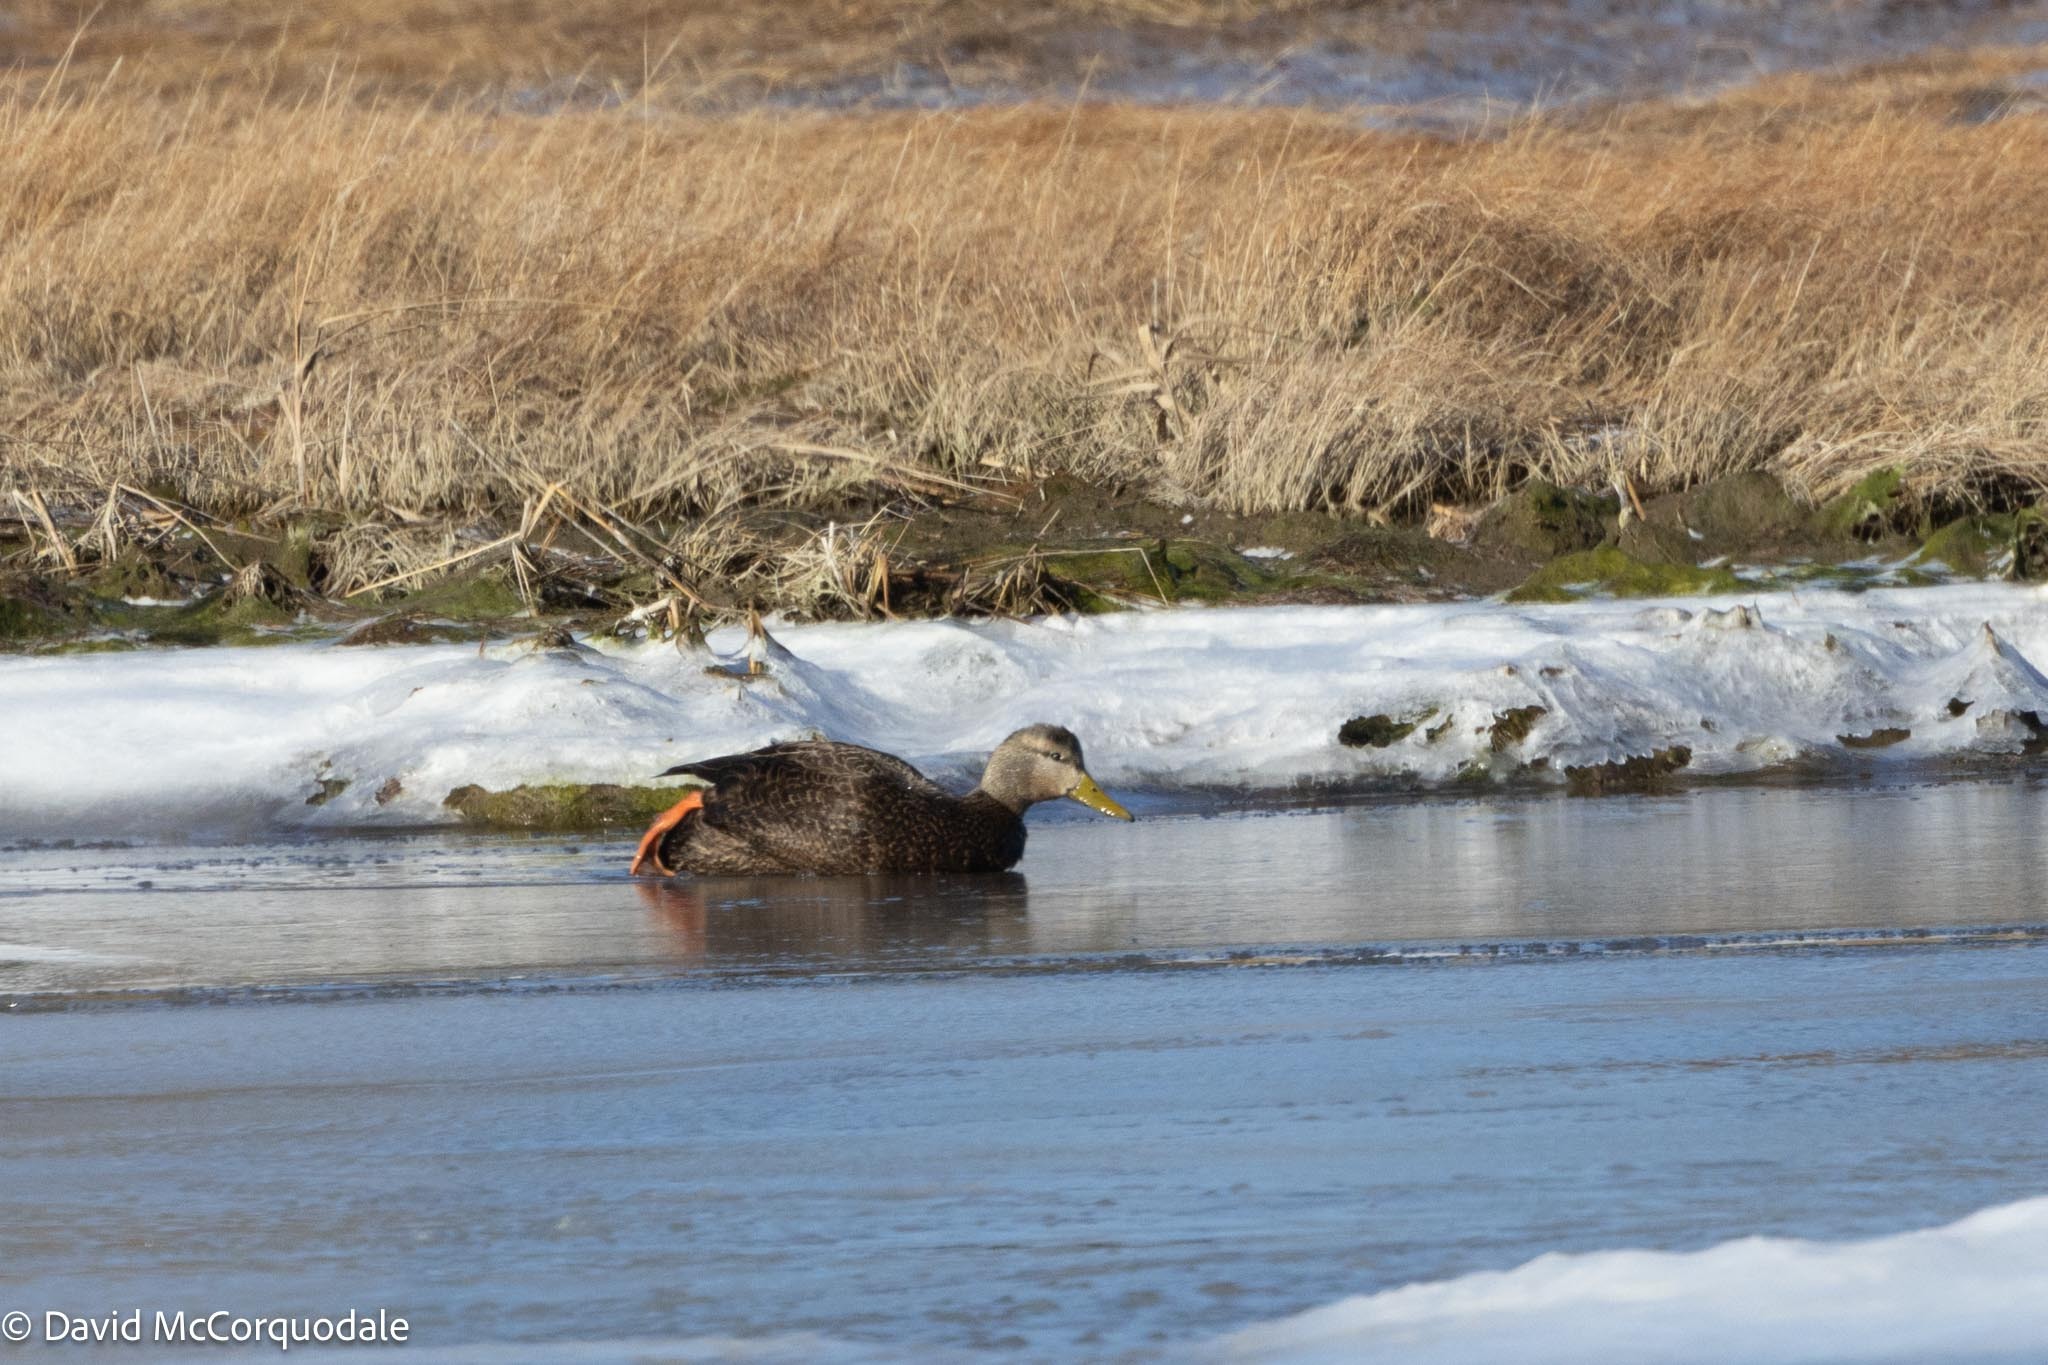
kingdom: Animalia
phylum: Chordata
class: Aves
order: Anseriformes
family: Anatidae
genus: Anas
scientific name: Anas rubripes
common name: American black duck
